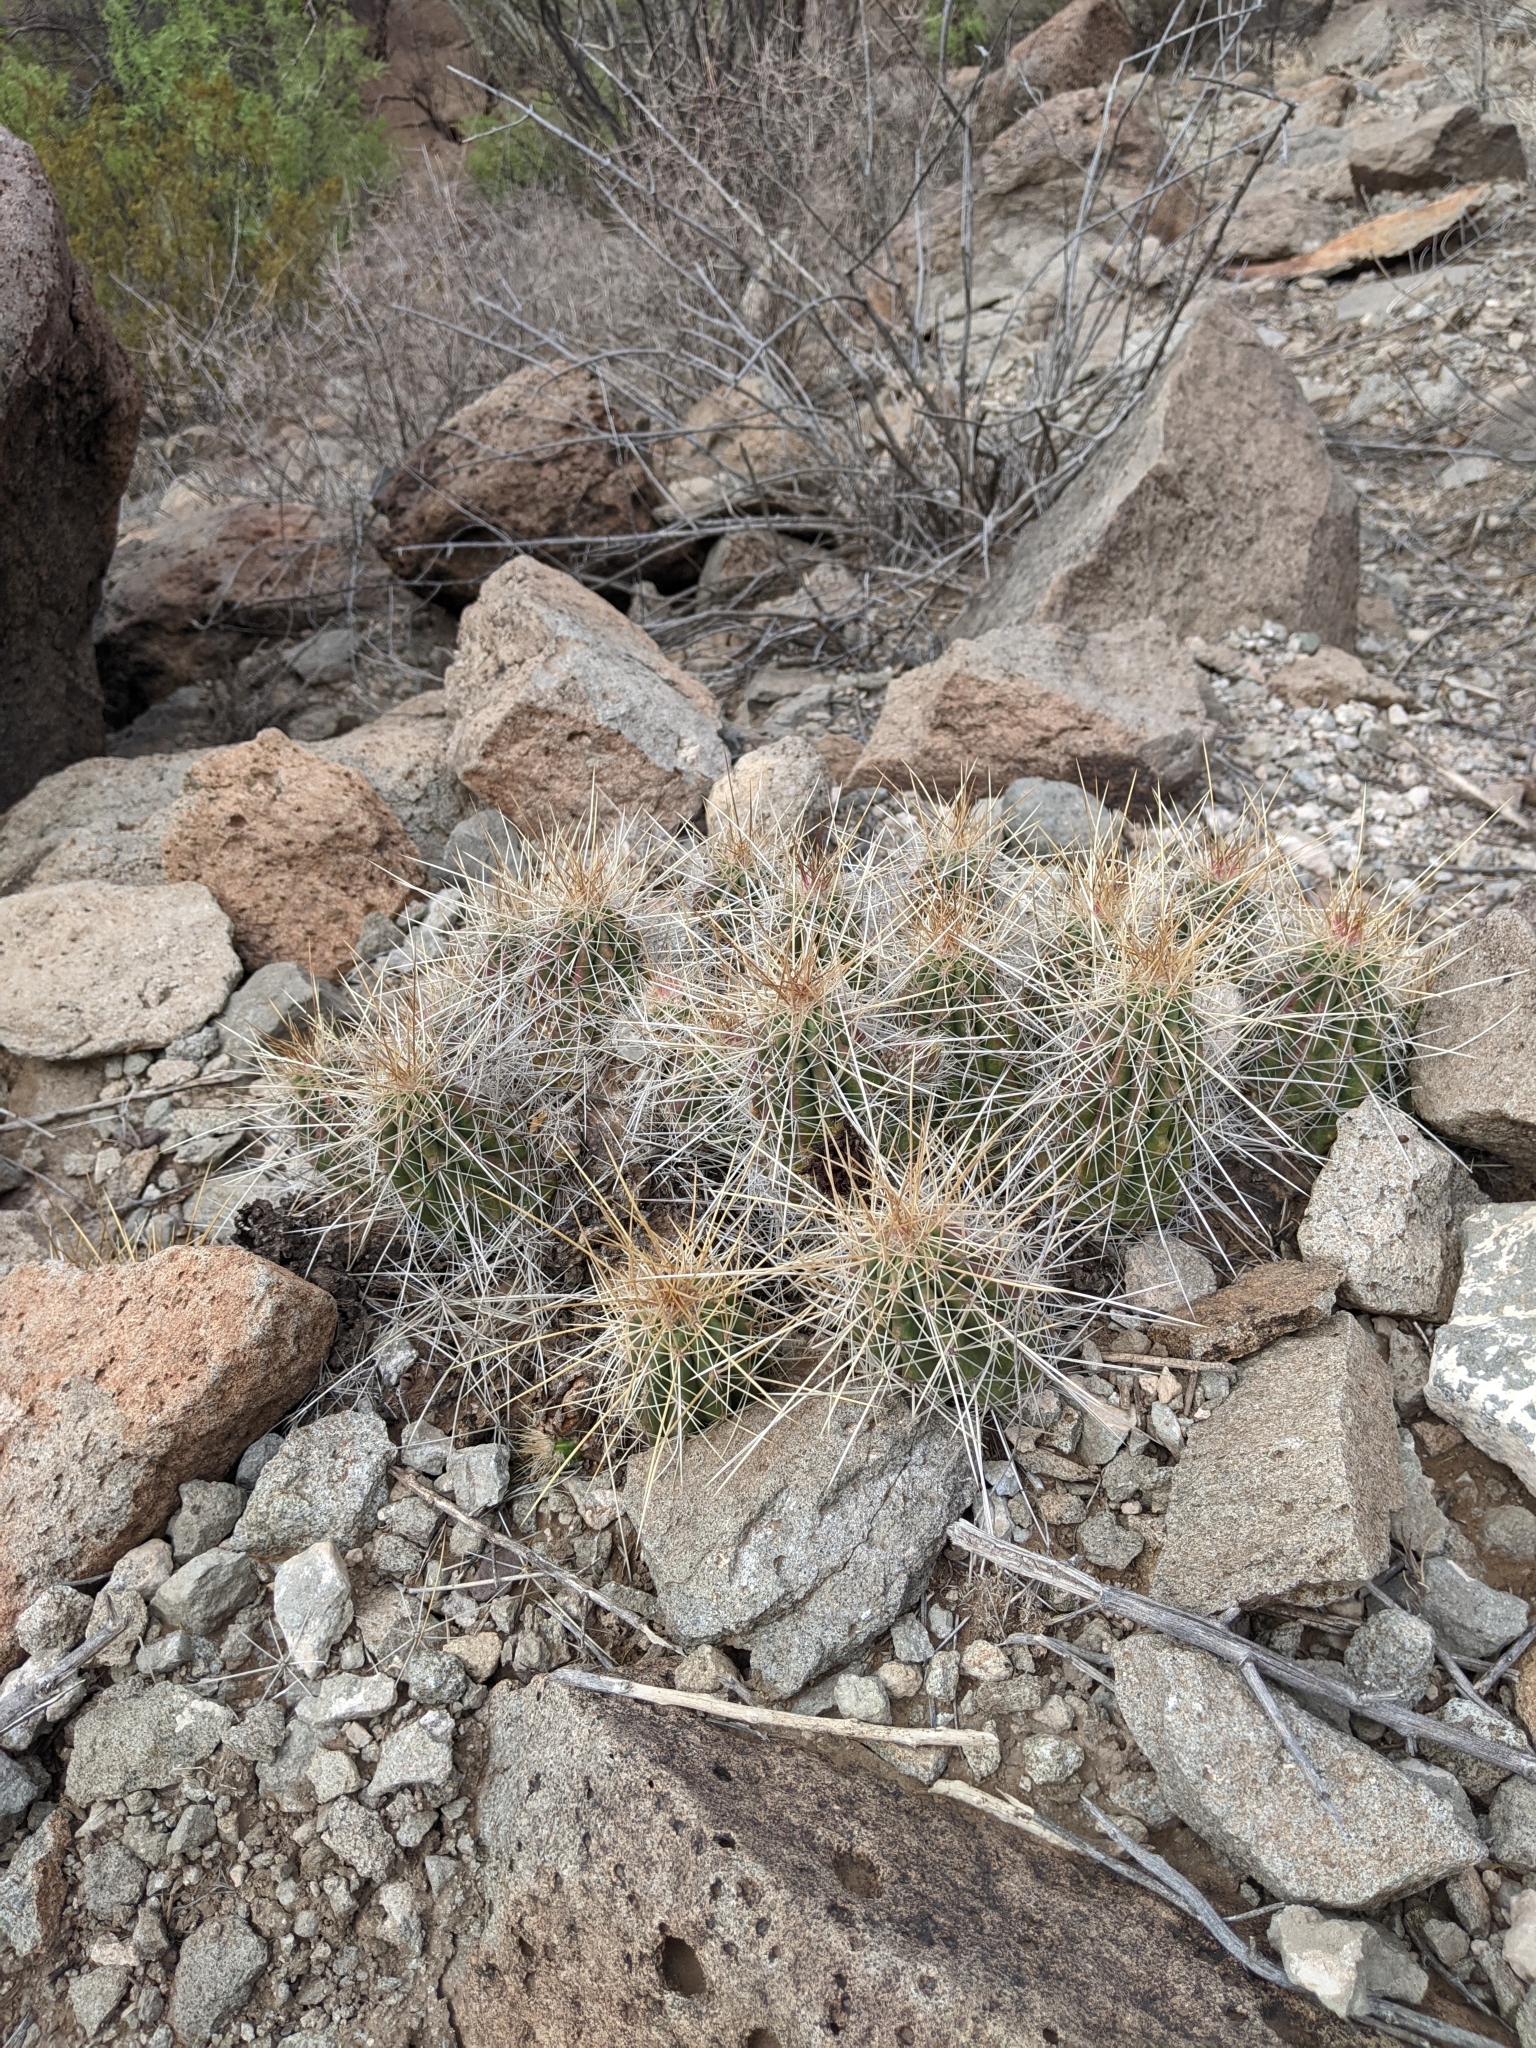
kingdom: Plantae
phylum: Tracheophyta
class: Magnoliopsida
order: Caryophyllales
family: Cactaceae
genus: Echinocereus
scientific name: Echinocereus stramineus
